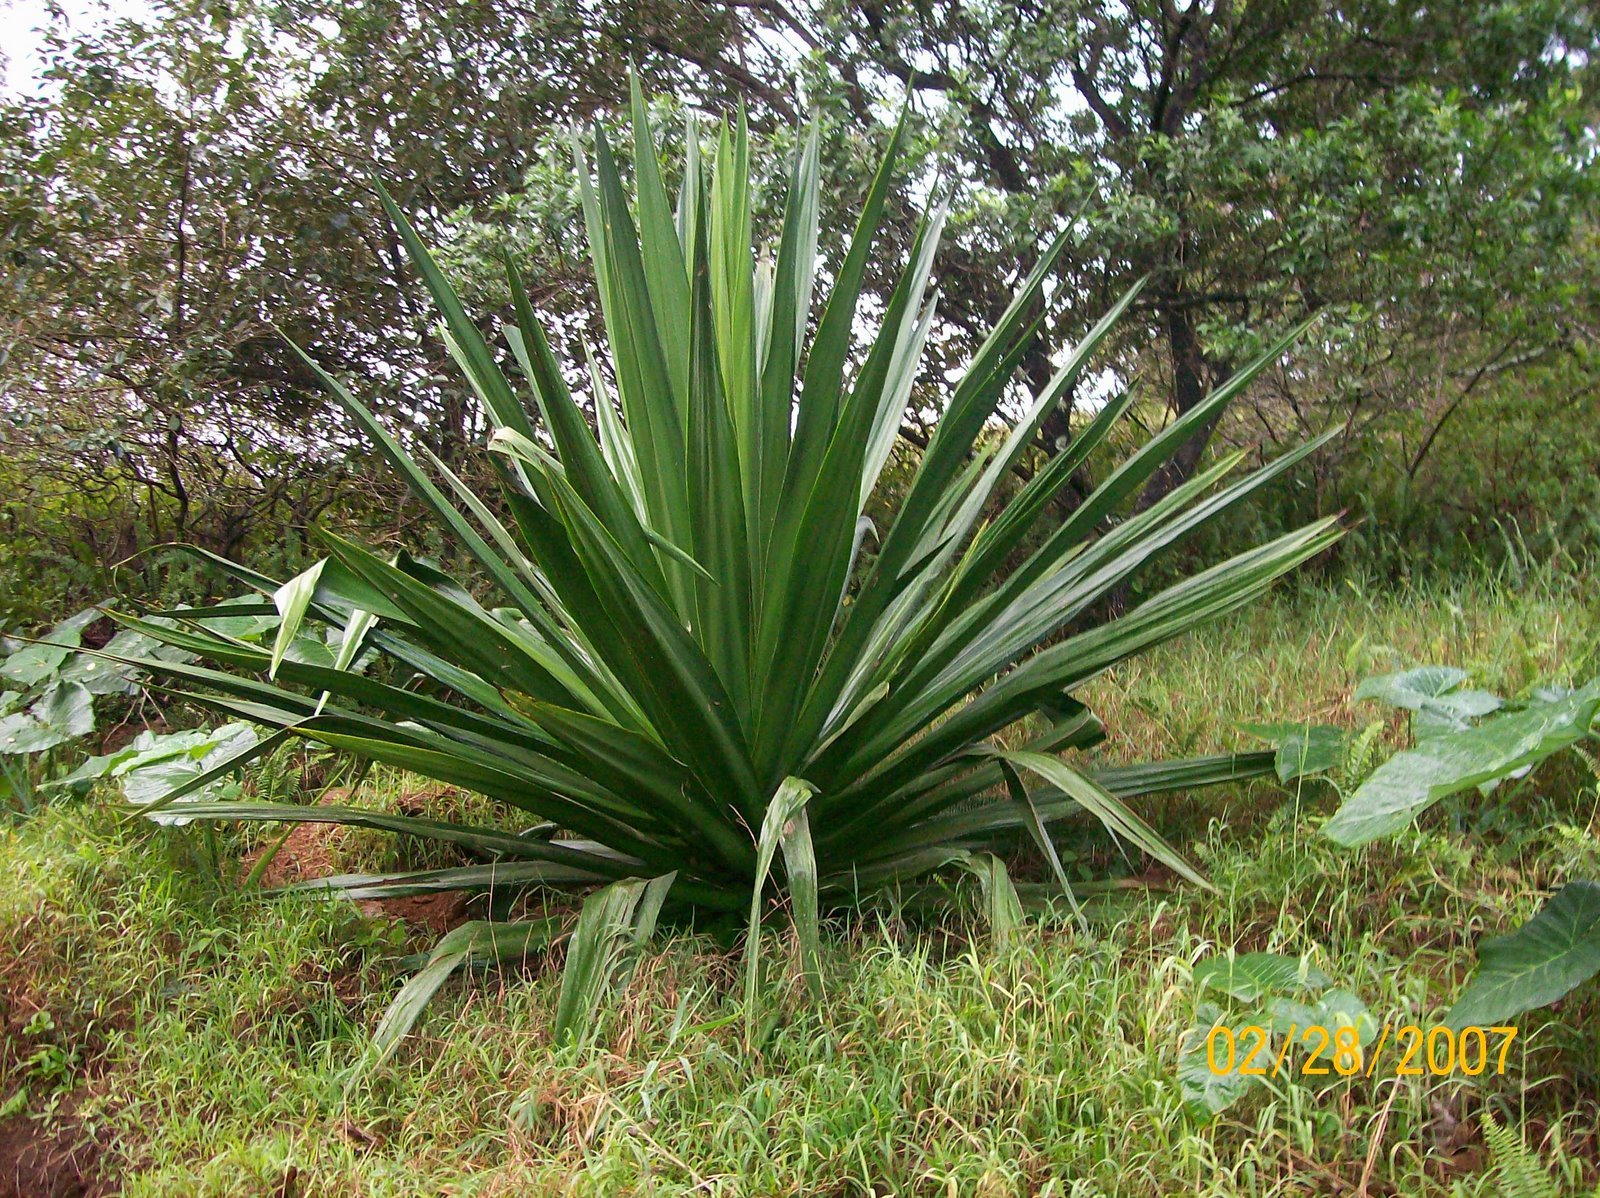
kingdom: Plantae
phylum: Tracheophyta
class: Liliopsida
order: Asparagales
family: Asparagaceae
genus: Furcraea
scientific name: Furcraea foetida
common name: Mauritius hemp
